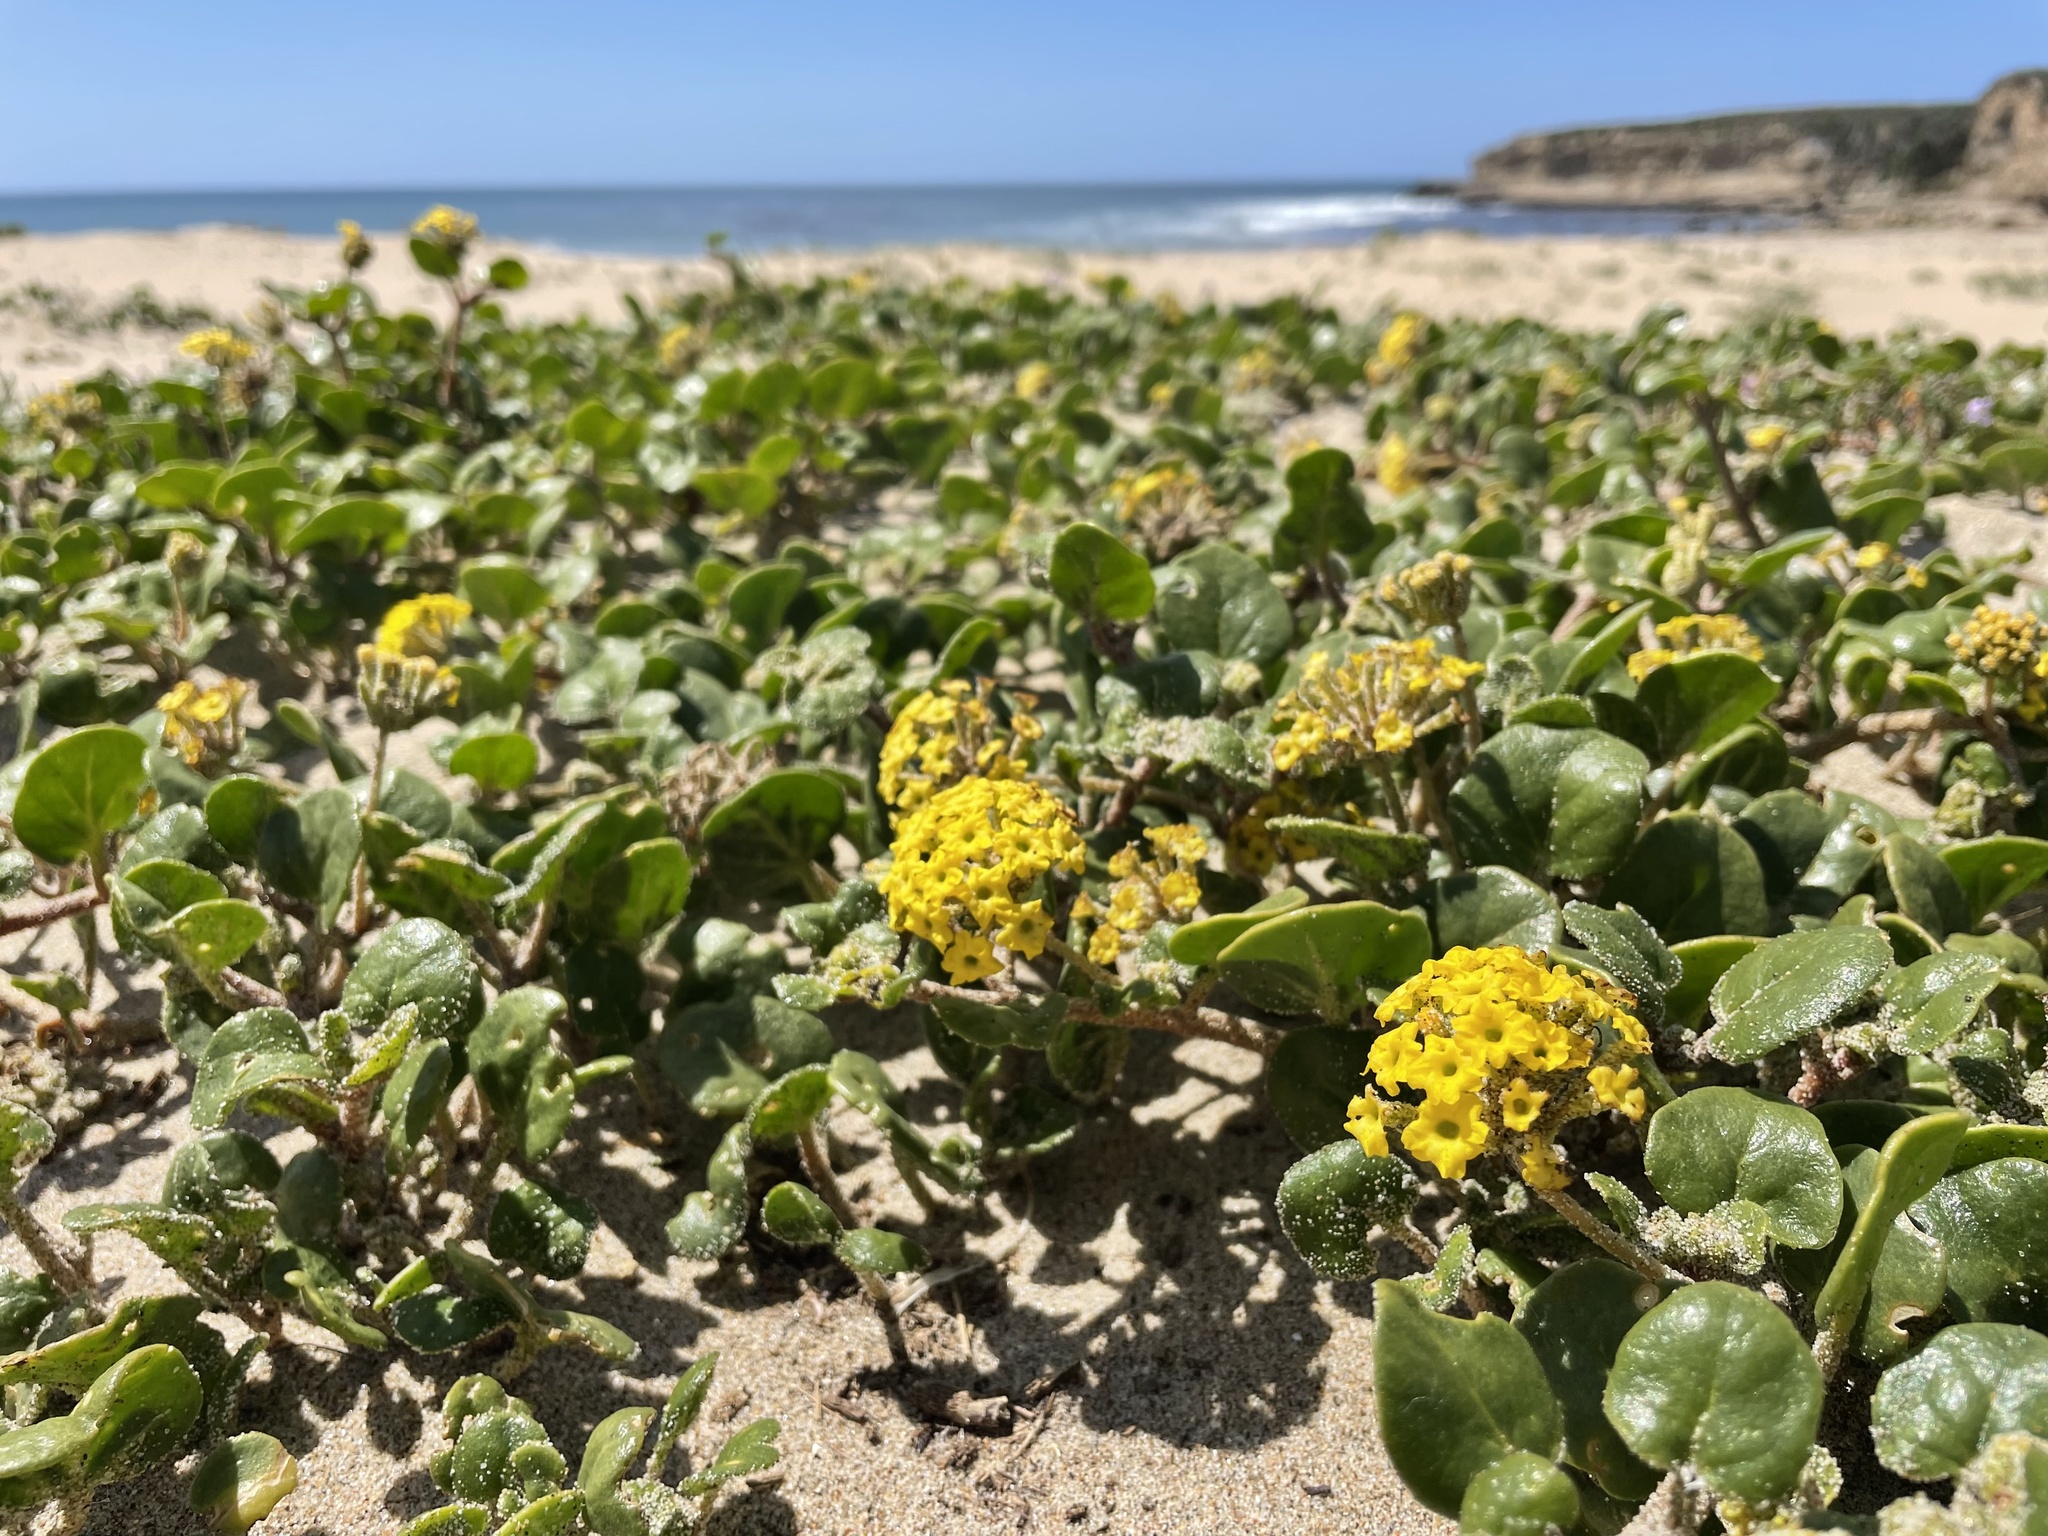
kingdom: Plantae
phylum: Tracheophyta
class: Magnoliopsida
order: Caryophyllales
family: Nyctaginaceae
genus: Abronia
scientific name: Abronia latifolia
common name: Yellow sand-verbena
